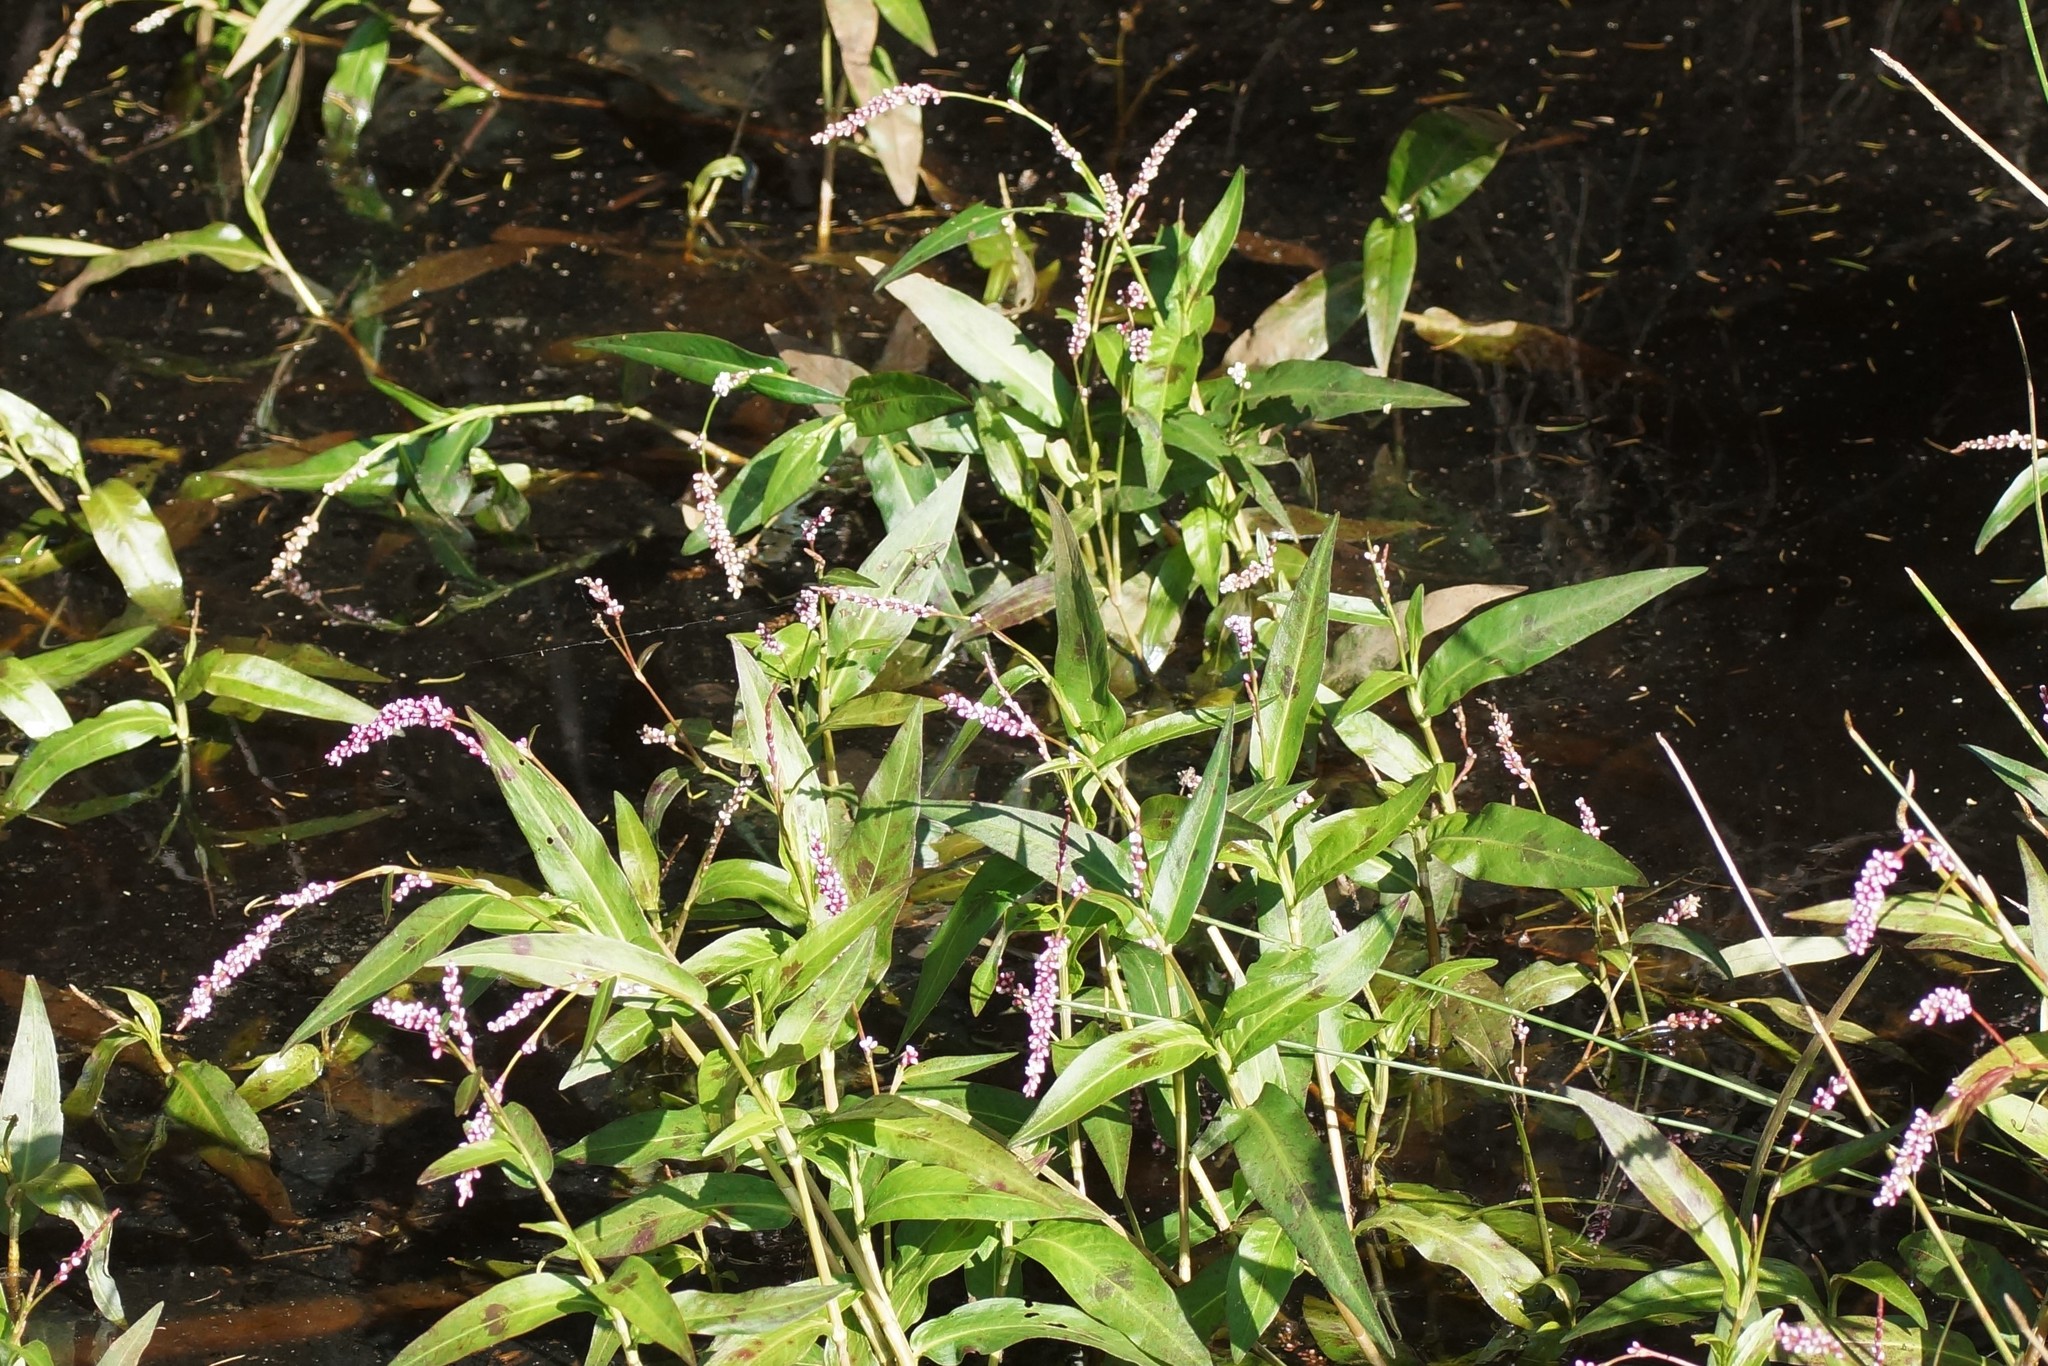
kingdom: Plantae
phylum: Tracheophyta
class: Magnoliopsida
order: Caryophyllales
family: Polygonaceae
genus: Persicaria
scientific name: Persicaria decipiens
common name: Willow-weed
